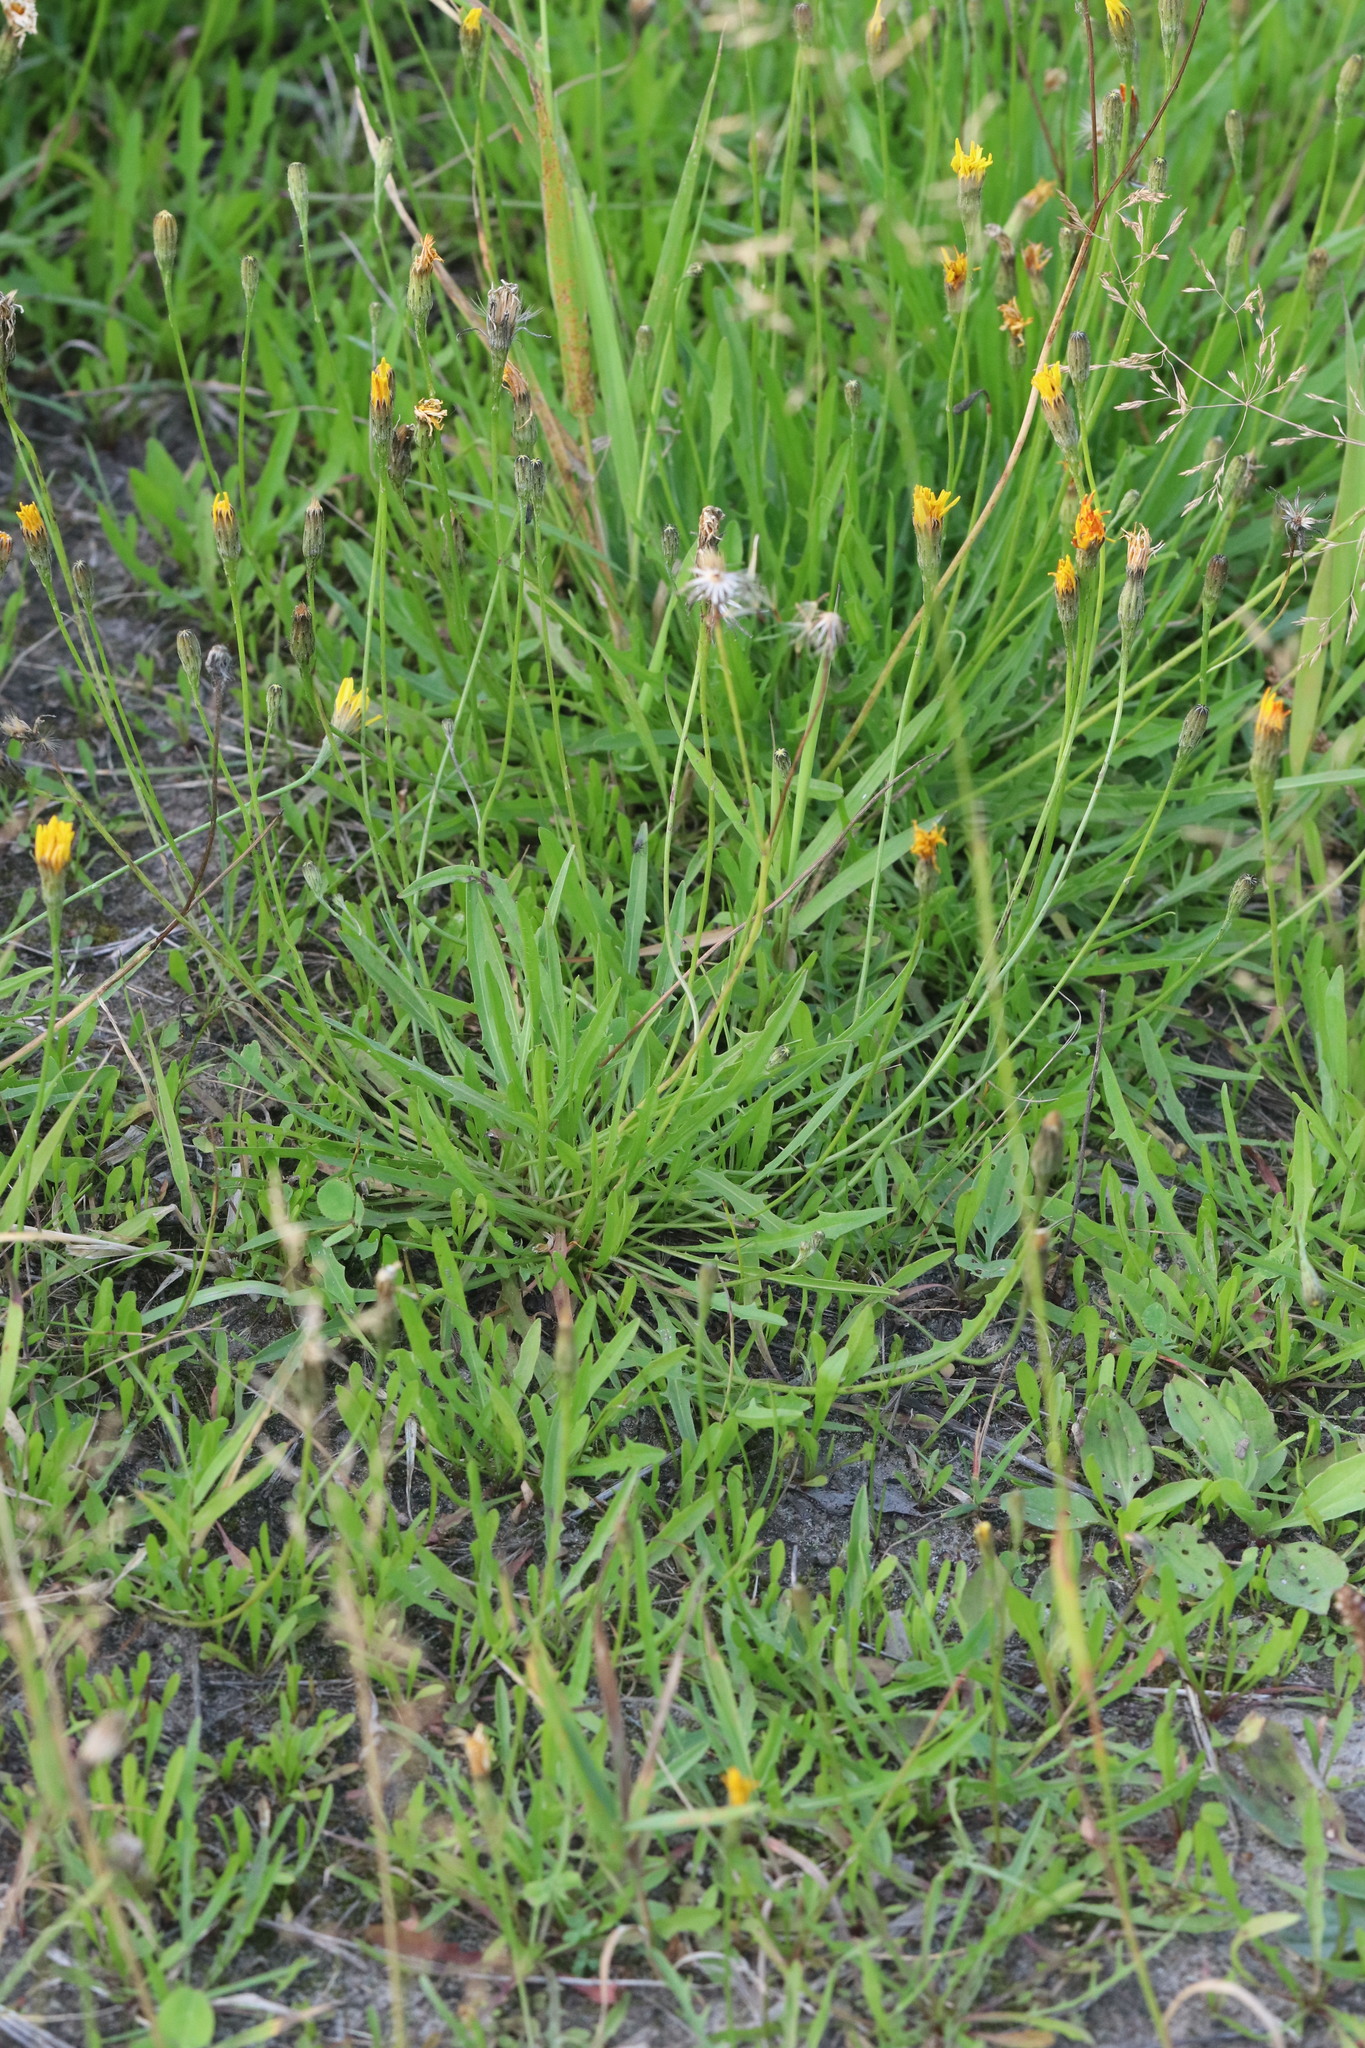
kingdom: Plantae
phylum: Tracheophyta
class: Magnoliopsida
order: Asterales
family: Asteraceae
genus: Scorzoneroides
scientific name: Scorzoneroides autumnalis
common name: Autumn hawkbit
